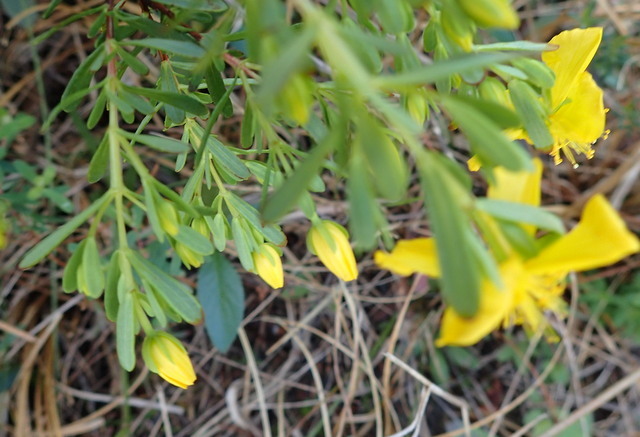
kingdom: Plantae
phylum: Tracheophyta
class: Magnoliopsida
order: Malpighiales
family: Hypericaceae
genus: Hypericum
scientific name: Hypericum microsepalum
